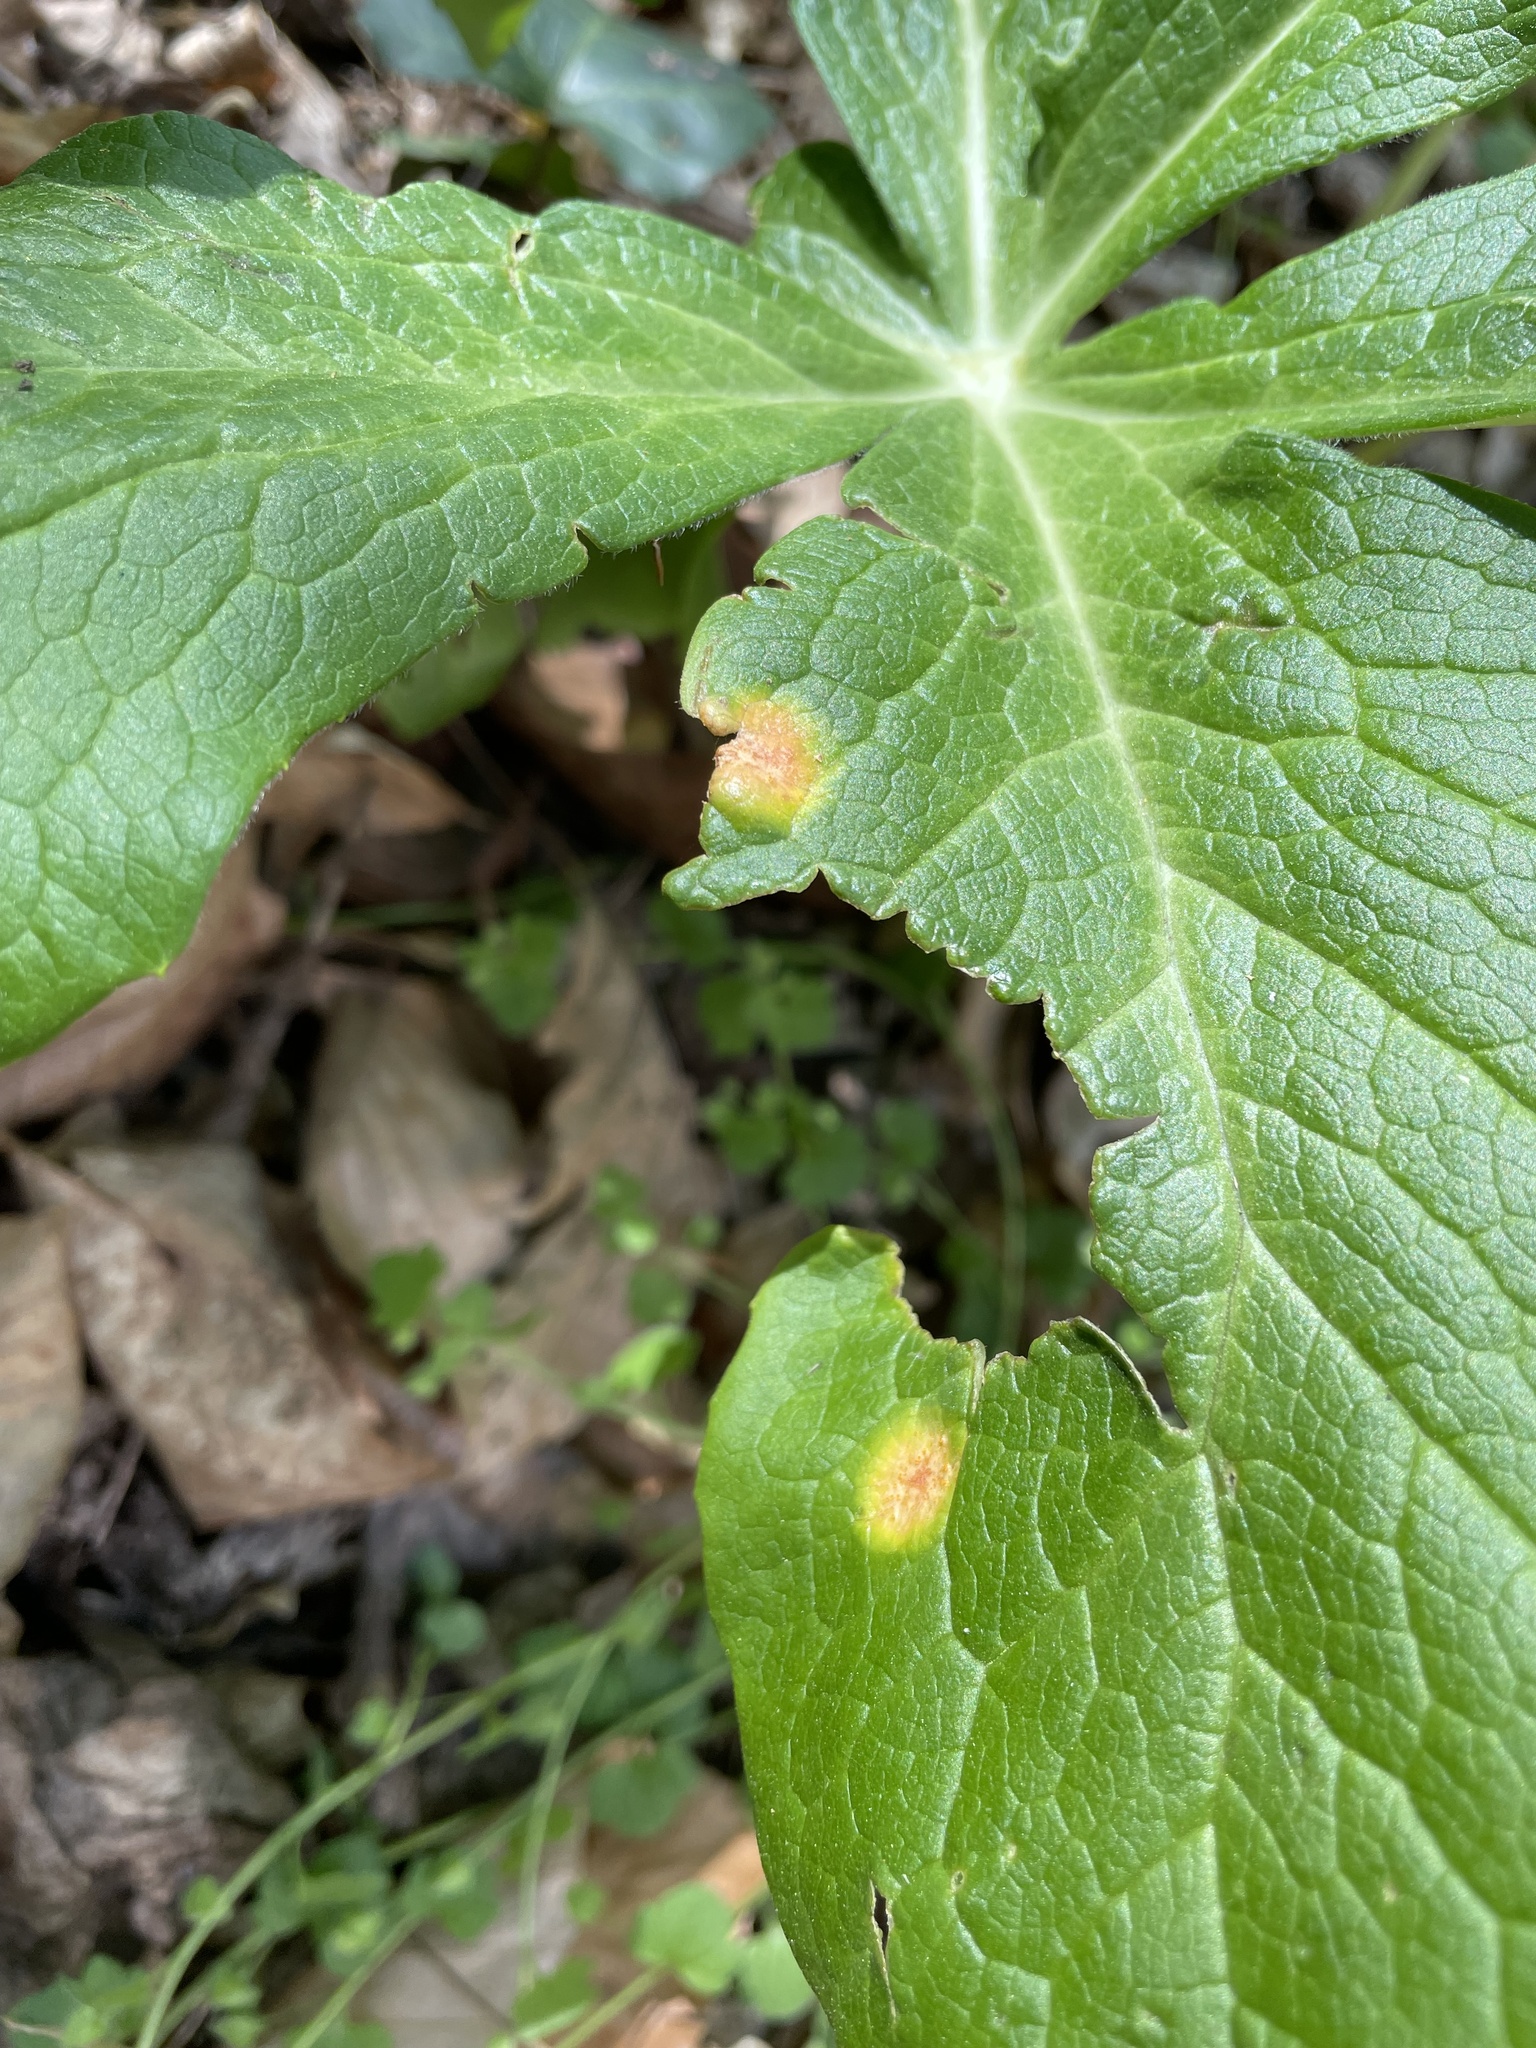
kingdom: Fungi
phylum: Basidiomycota
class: Pucciniomycetes
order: Pucciniales
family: Pucciniaceae
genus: Puccinia
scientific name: Puccinia podophylli
